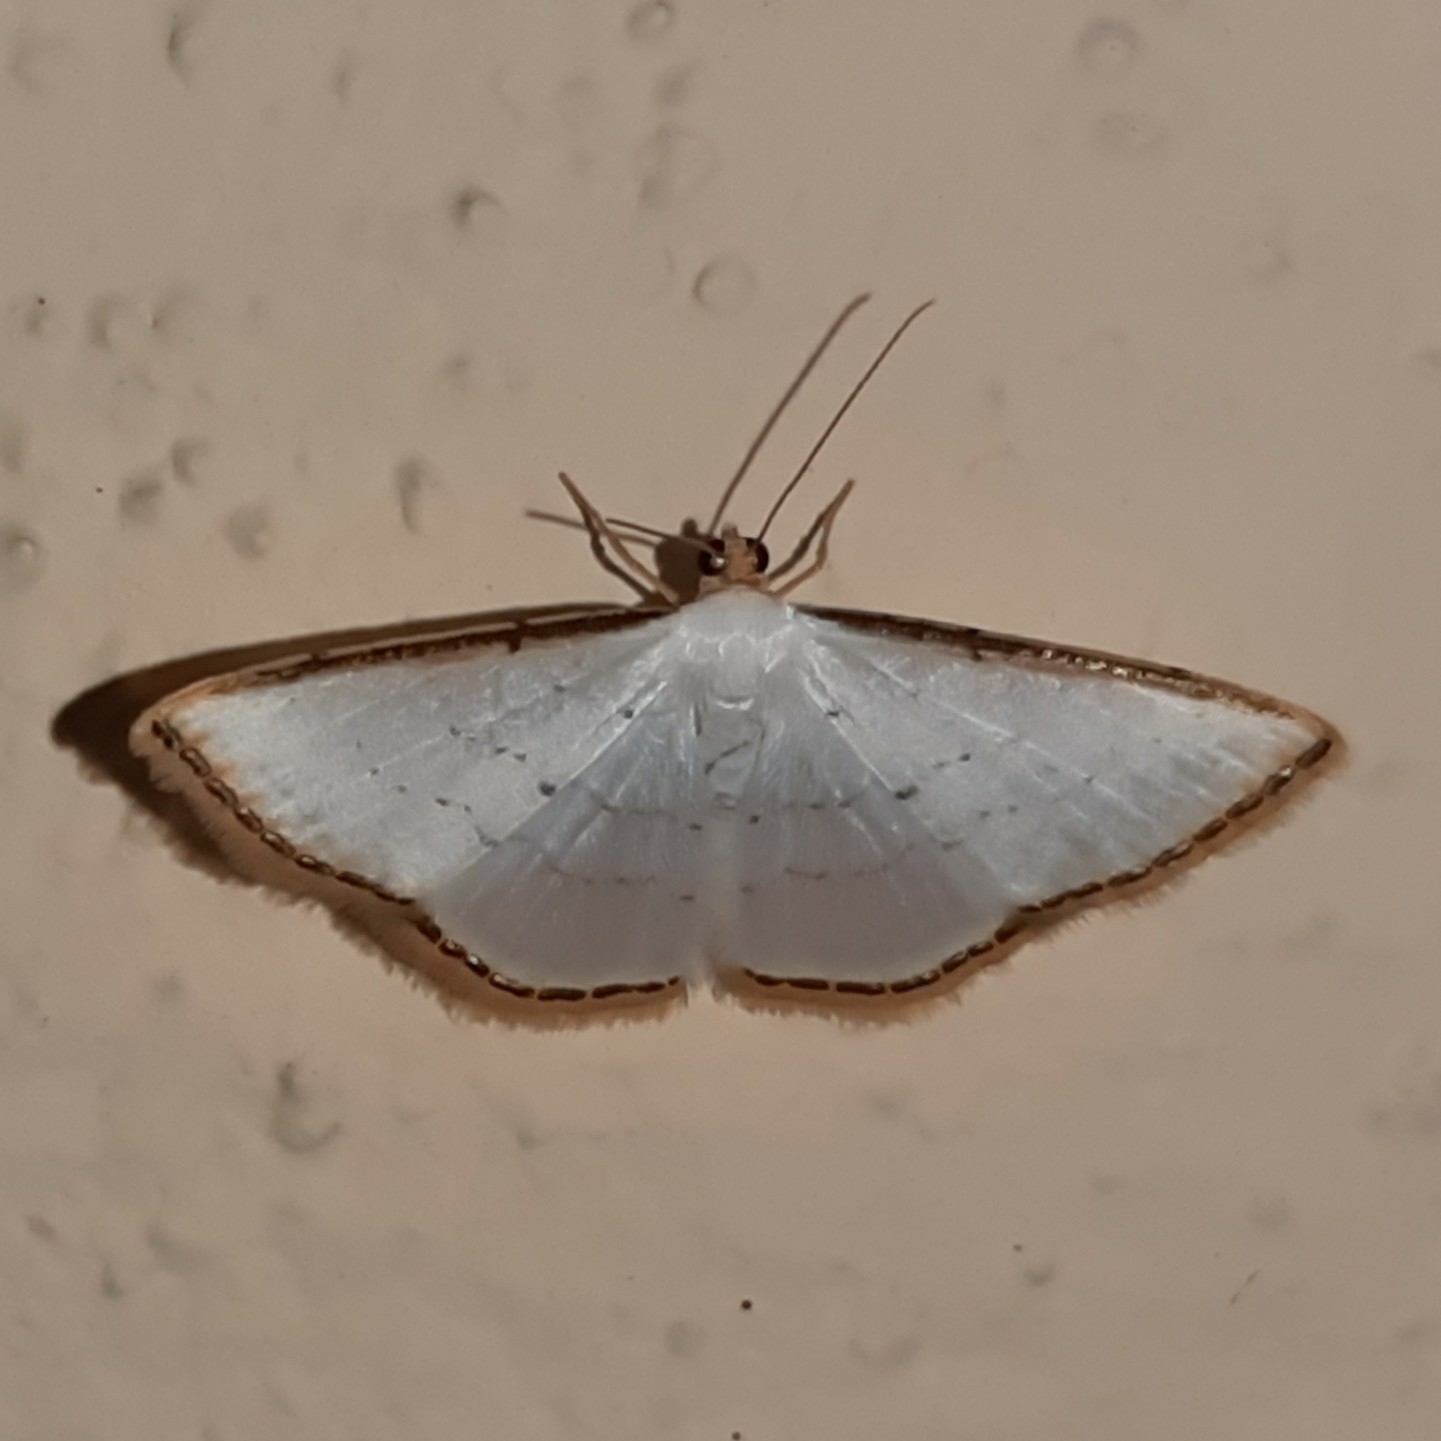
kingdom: Animalia
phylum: Arthropoda
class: Insecta
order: Lepidoptera
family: Geometridae
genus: Leuciris
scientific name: Leuciris fimbriaria
